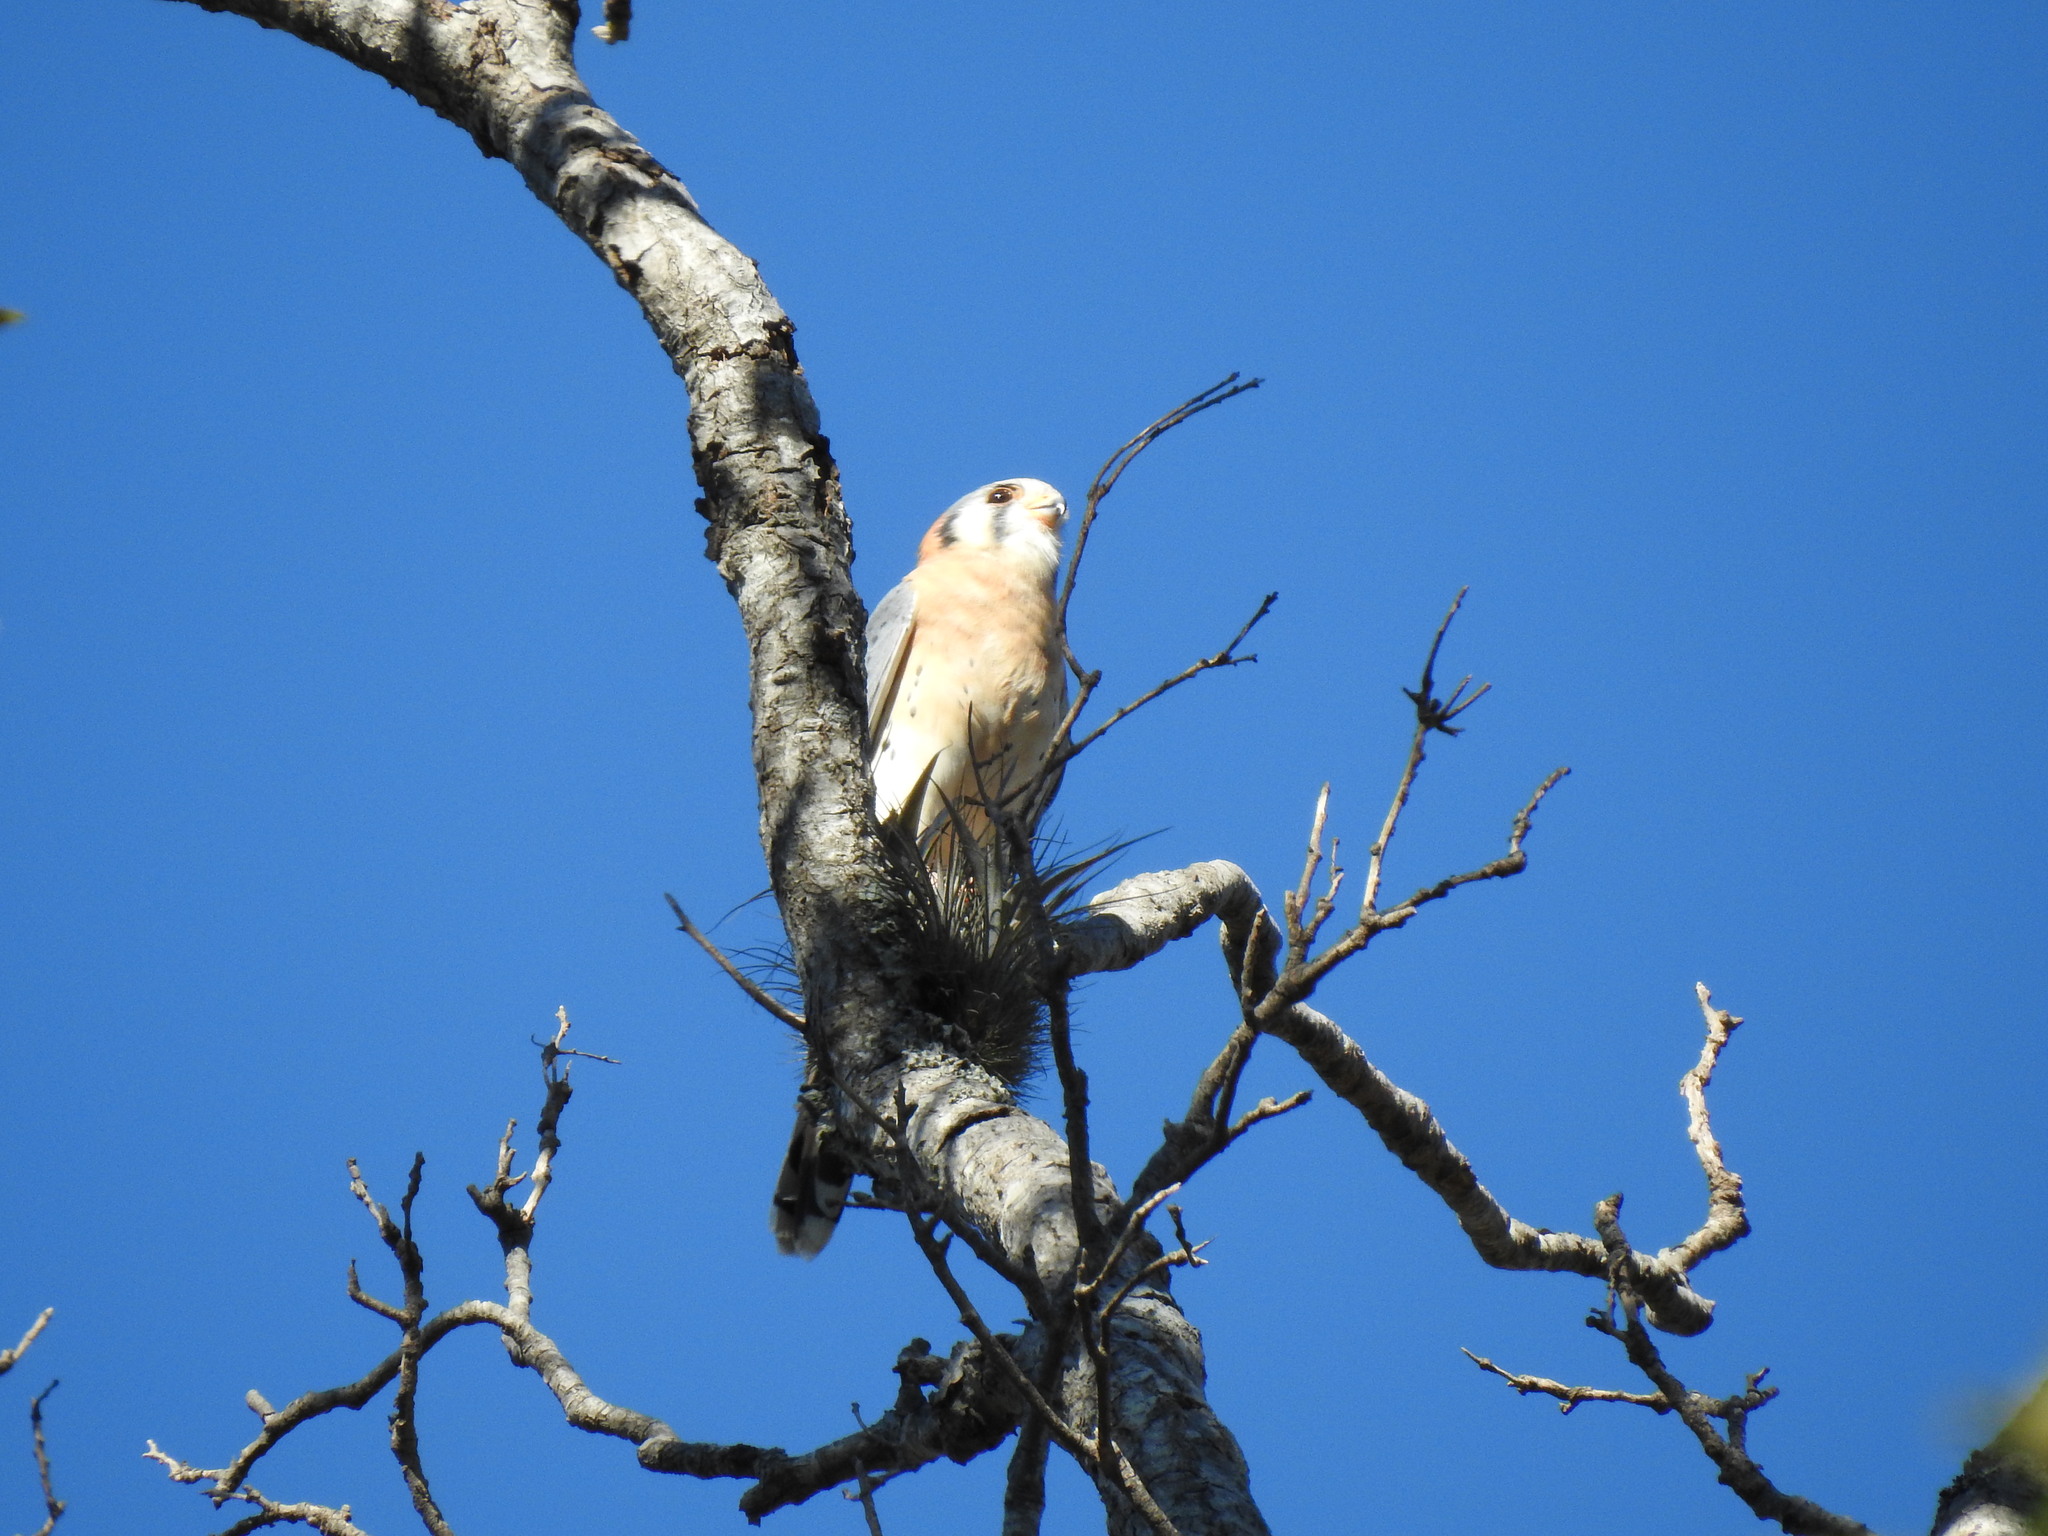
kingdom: Animalia
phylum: Chordata
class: Aves
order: Falconiformes
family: Falconidae
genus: Falco
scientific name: Falco sparverius
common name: American kestrel
